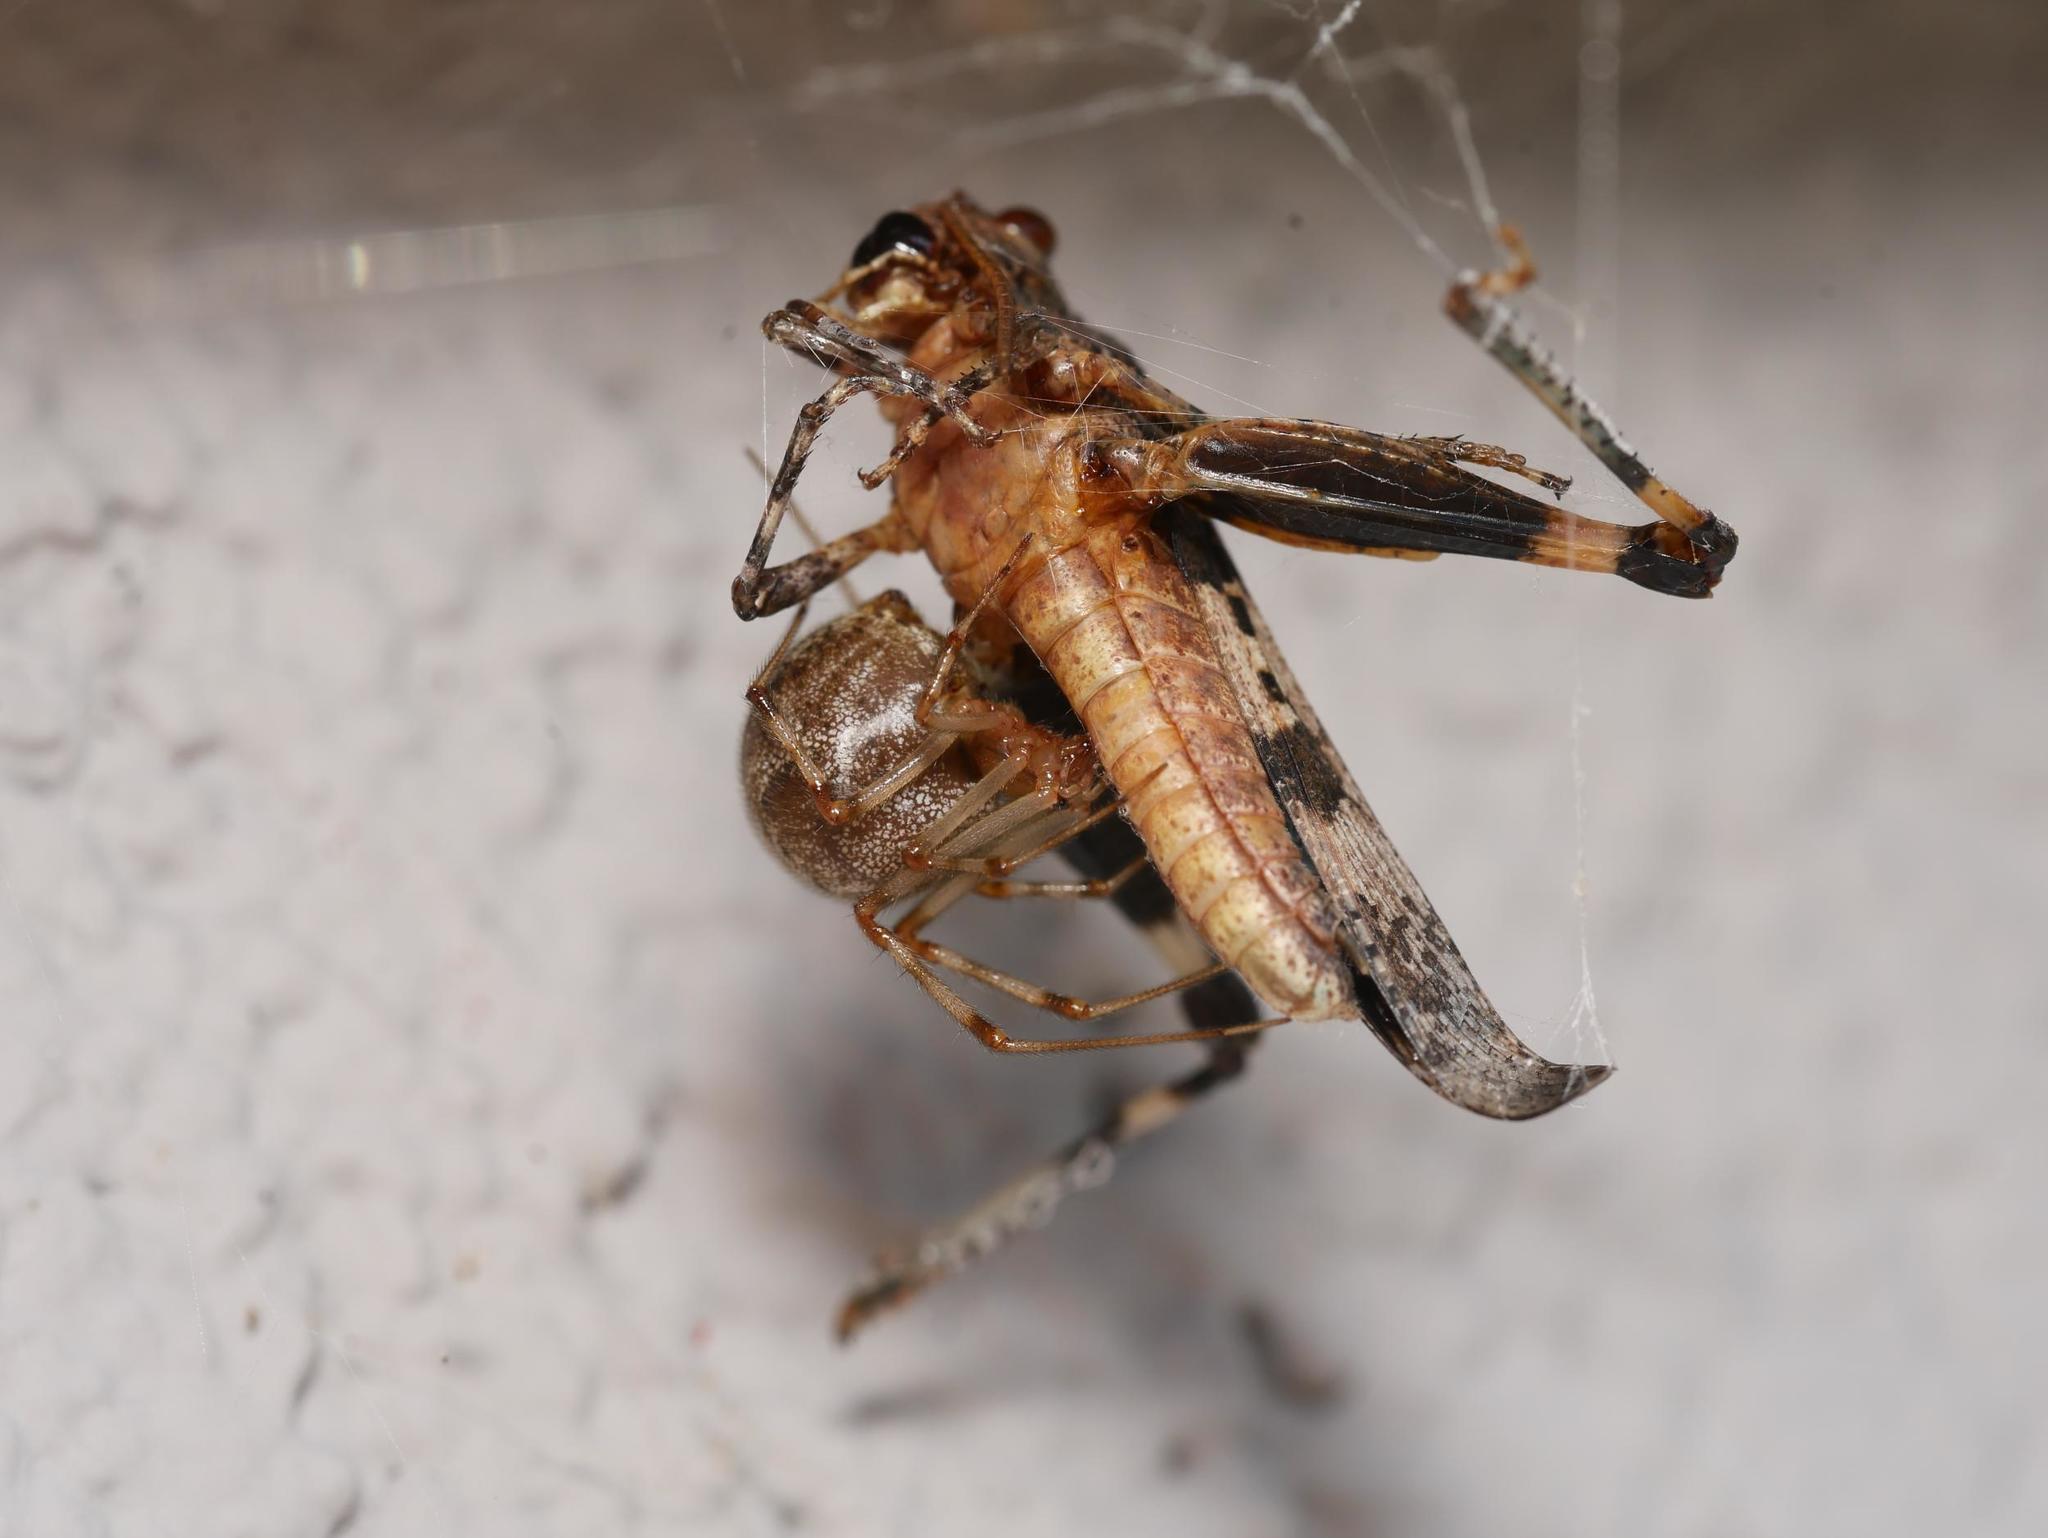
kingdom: Animalia
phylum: Arthropoda
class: Insecta
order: Orthoptera
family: Acrididae
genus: Oedipoda
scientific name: Oedipoda caerulescens
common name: Blue-winged grasshopper
